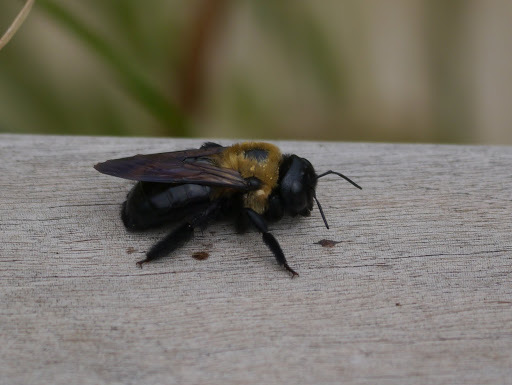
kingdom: Animalia
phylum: Arthropoda
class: Insecta
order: Hymenoptera
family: Apidae
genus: Xylocopa
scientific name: Xylocopa virginica
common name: Carpenter bee
